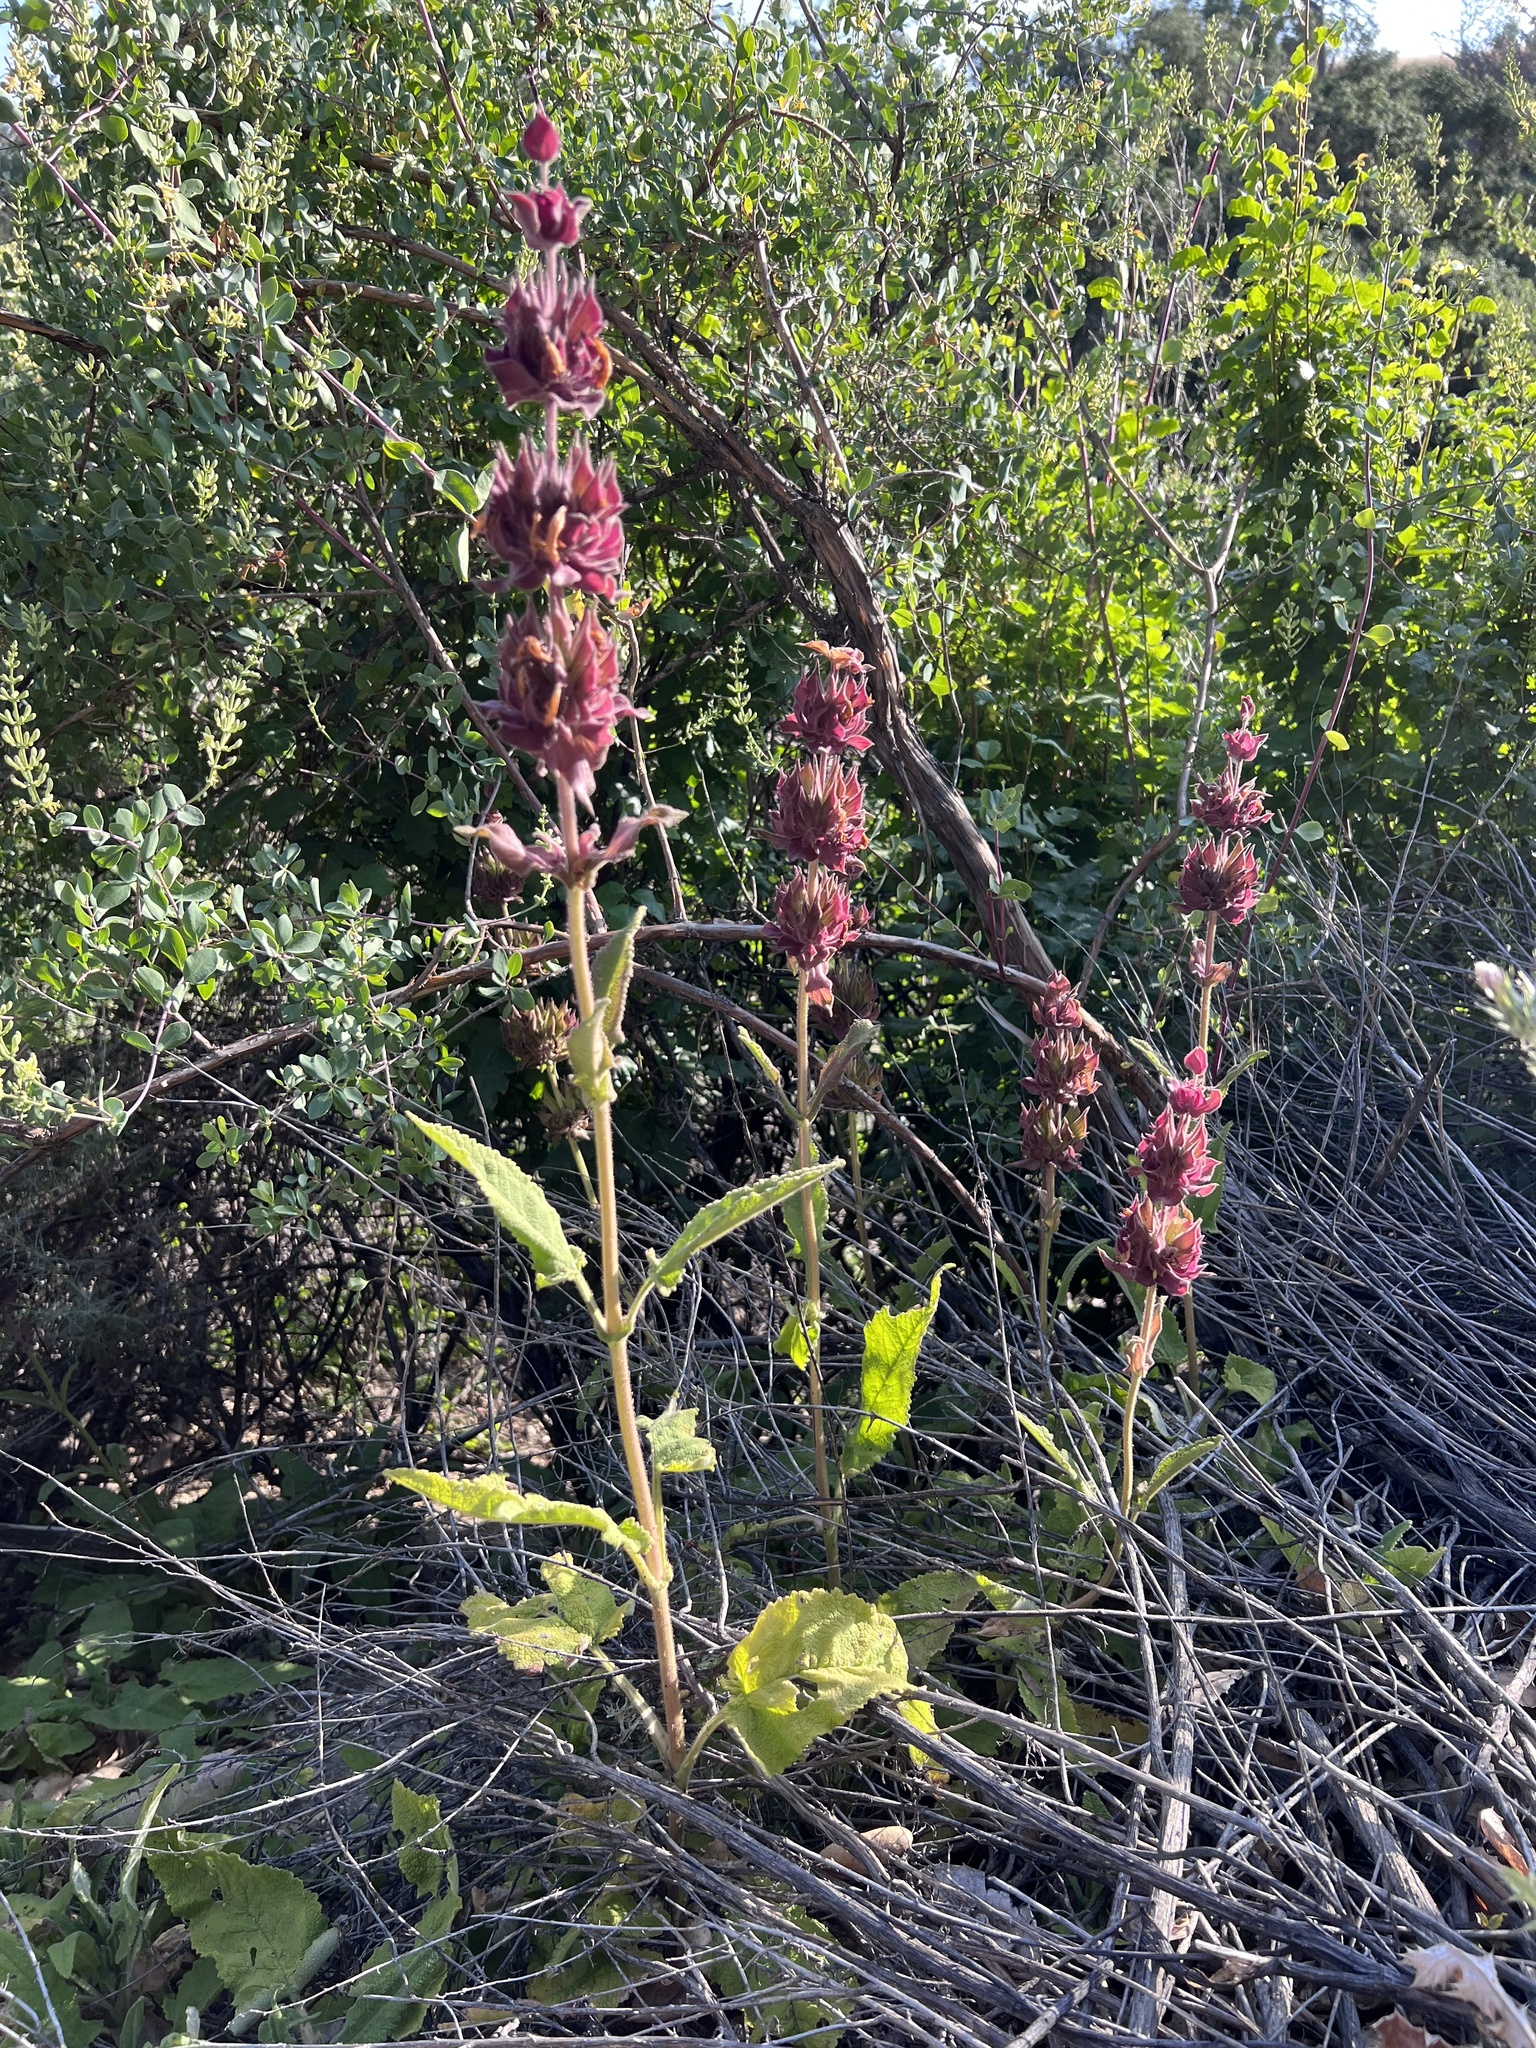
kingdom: Plantae
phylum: Tracheophyta
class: Magnoliopsida
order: Lamiales
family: Lamiaceae
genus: Salvia
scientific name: Salvia spathacea
